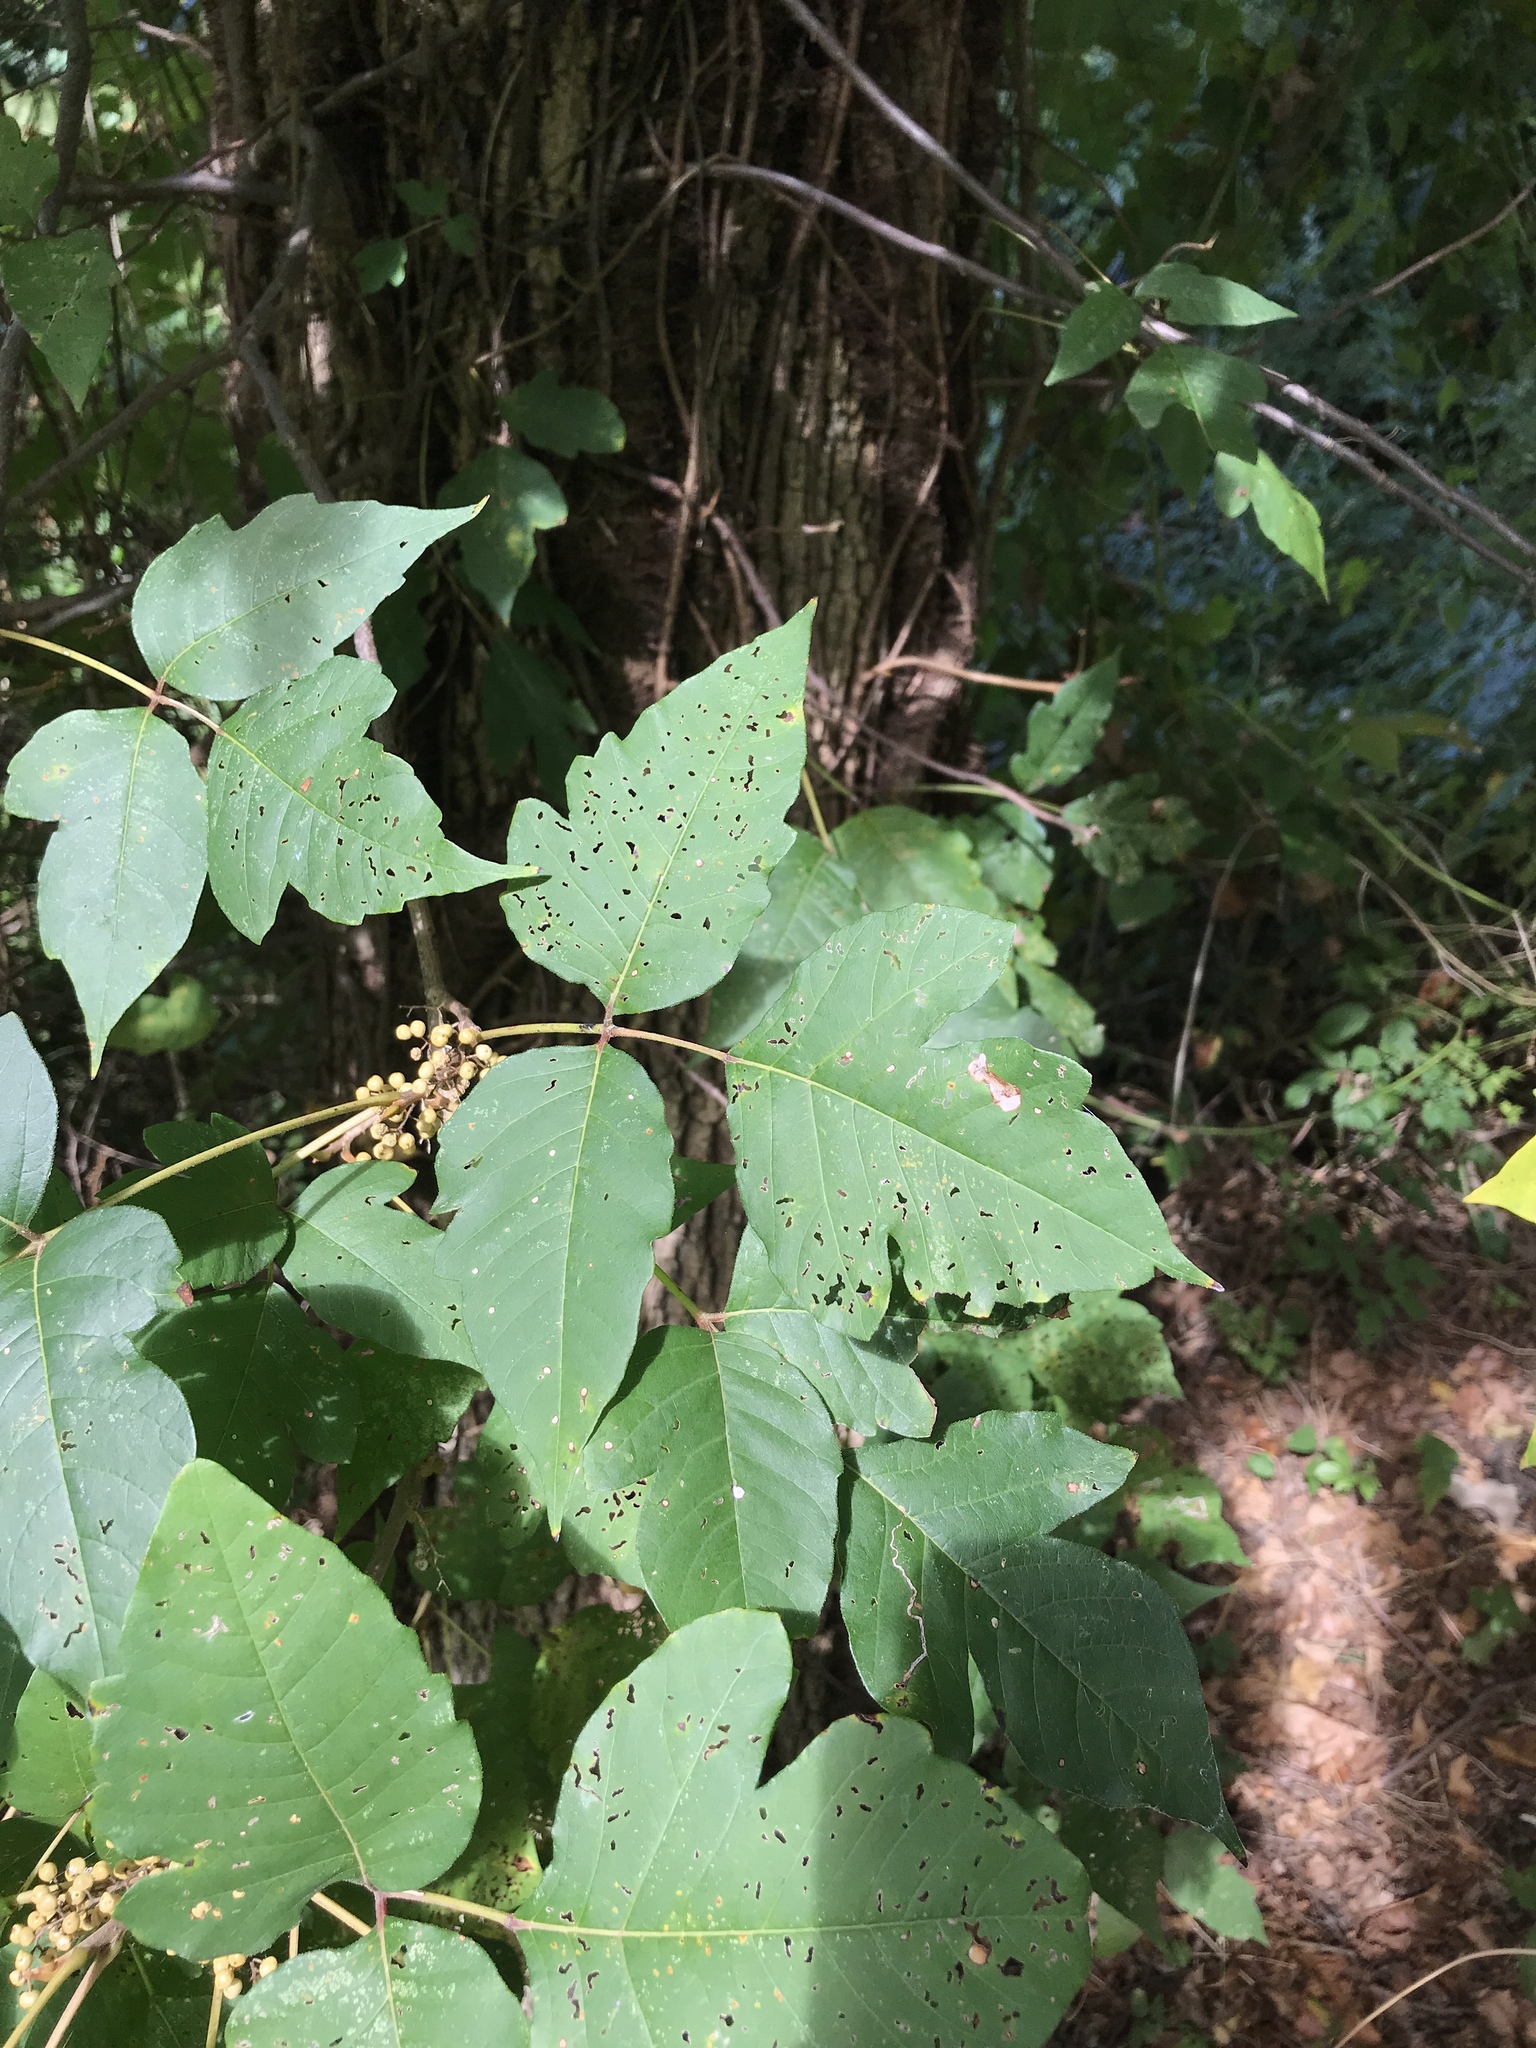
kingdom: Plantae
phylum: Tracheophyta
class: Magnoliopsida
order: Sapindales
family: Anacardiaceae
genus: Toxicodendron
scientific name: Toxicodendron radicans
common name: Poison ivy
